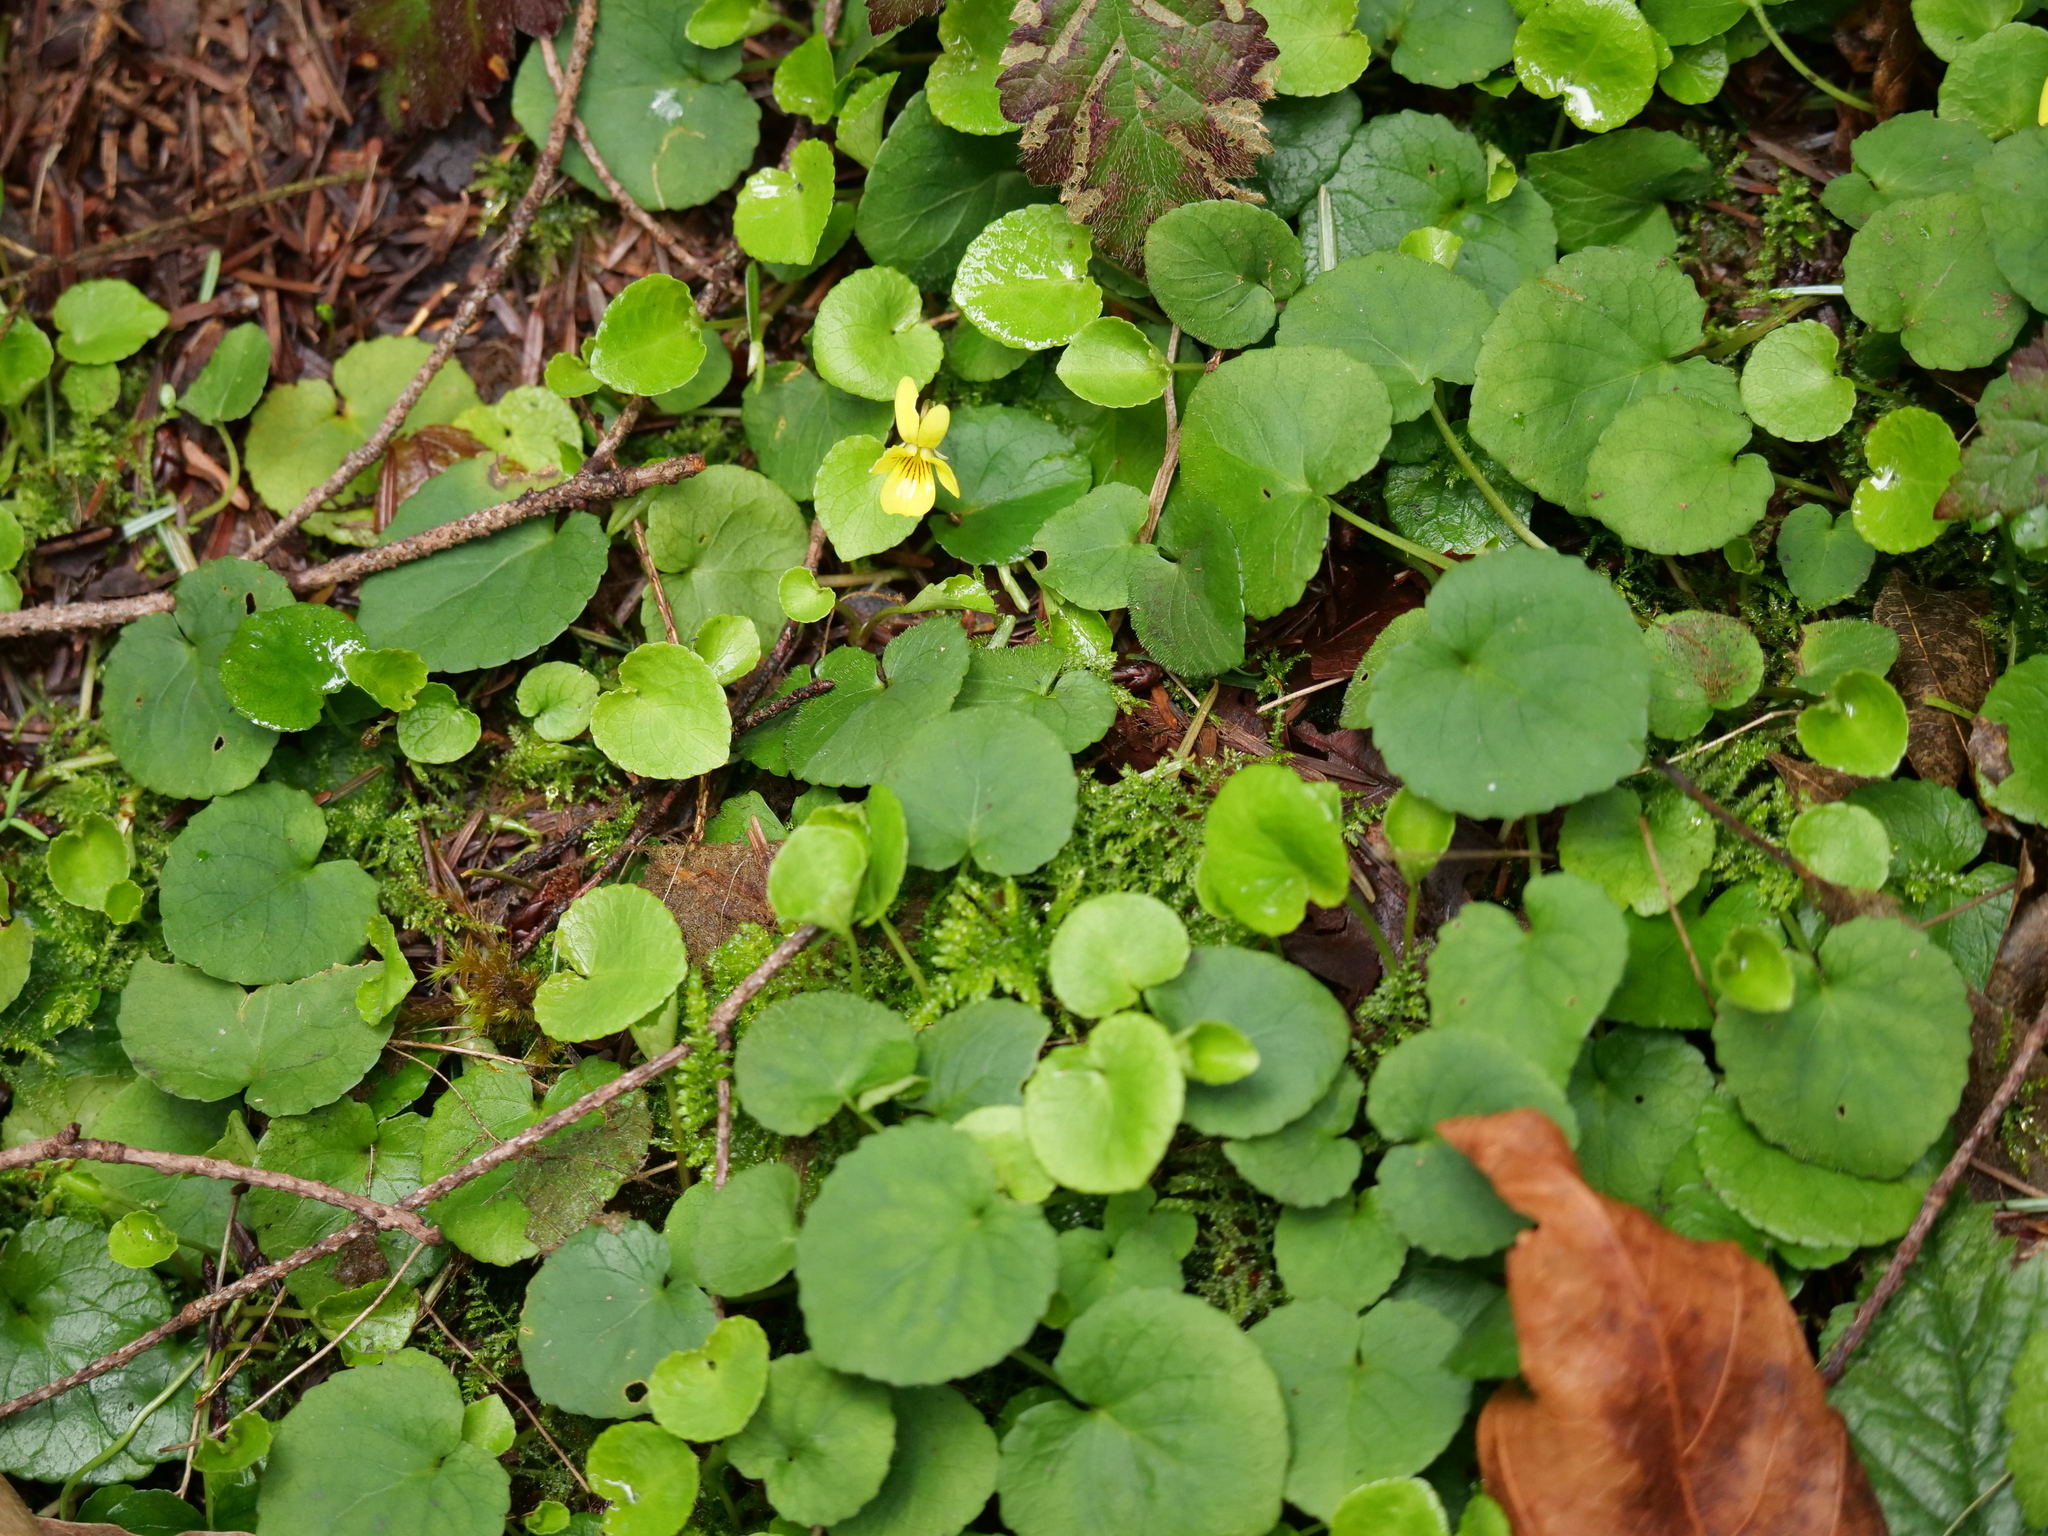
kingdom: Plantae
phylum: Tracheophyta
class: Magnoliopsida
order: Malpighiales
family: Violaceae
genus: Viola
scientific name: Viola sempervirens
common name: Evergreen violet
